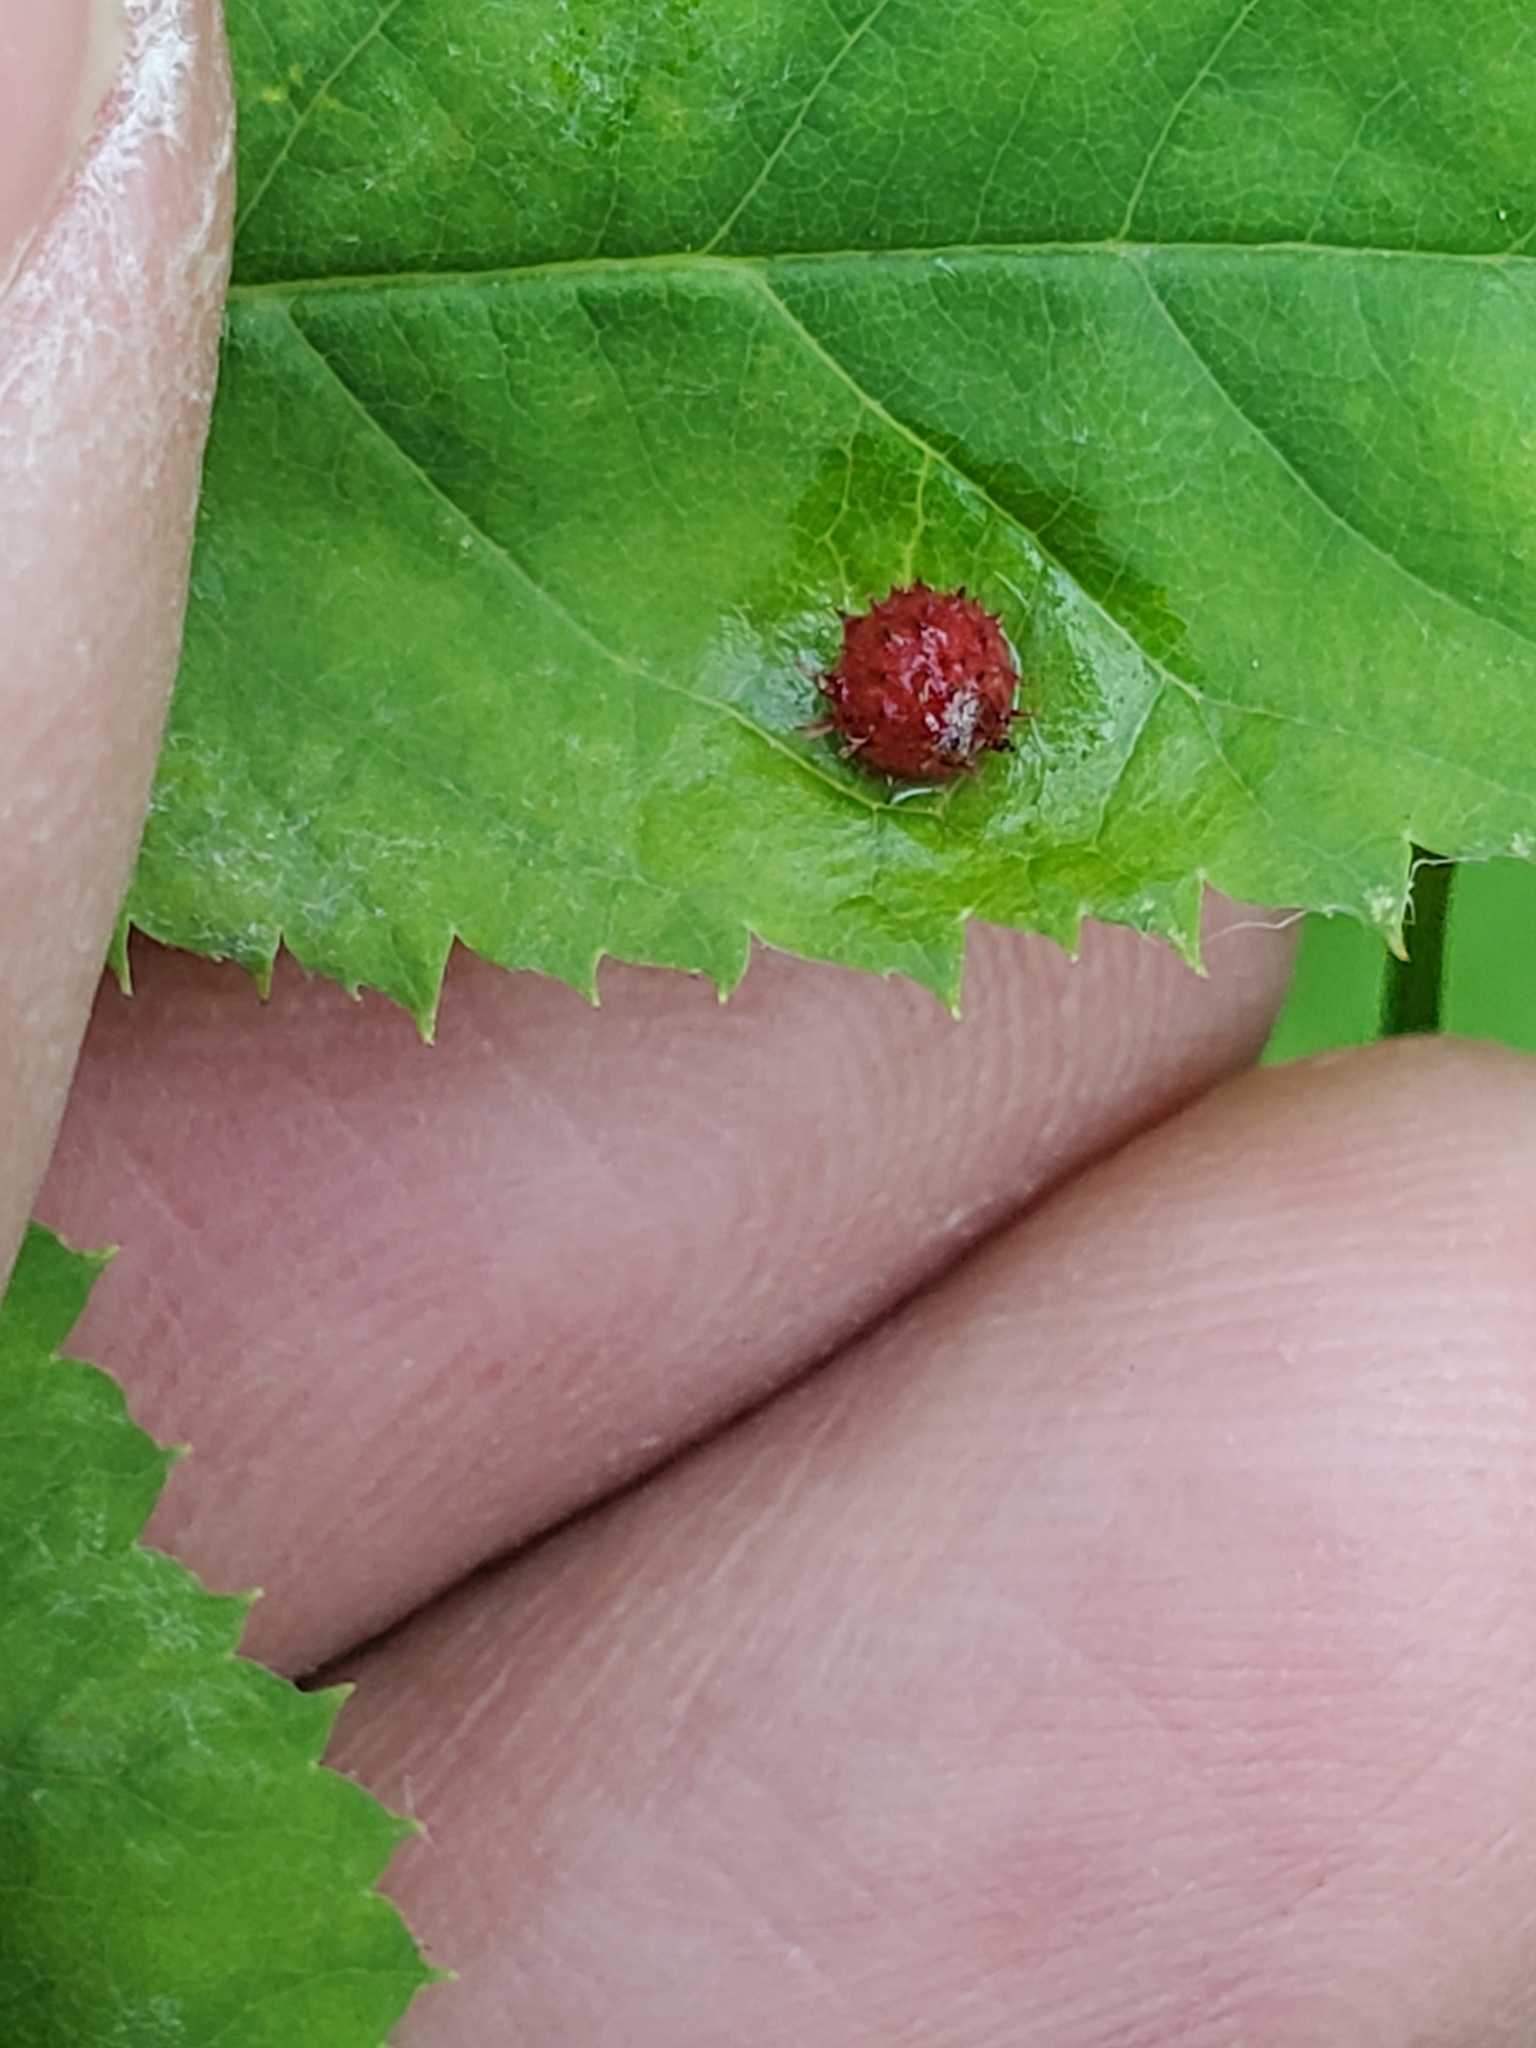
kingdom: Animalia
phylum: Arthropoda
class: Insecta
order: Hymenoptera
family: Cynipidae
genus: Diplolepis
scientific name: Diplolepis polita
